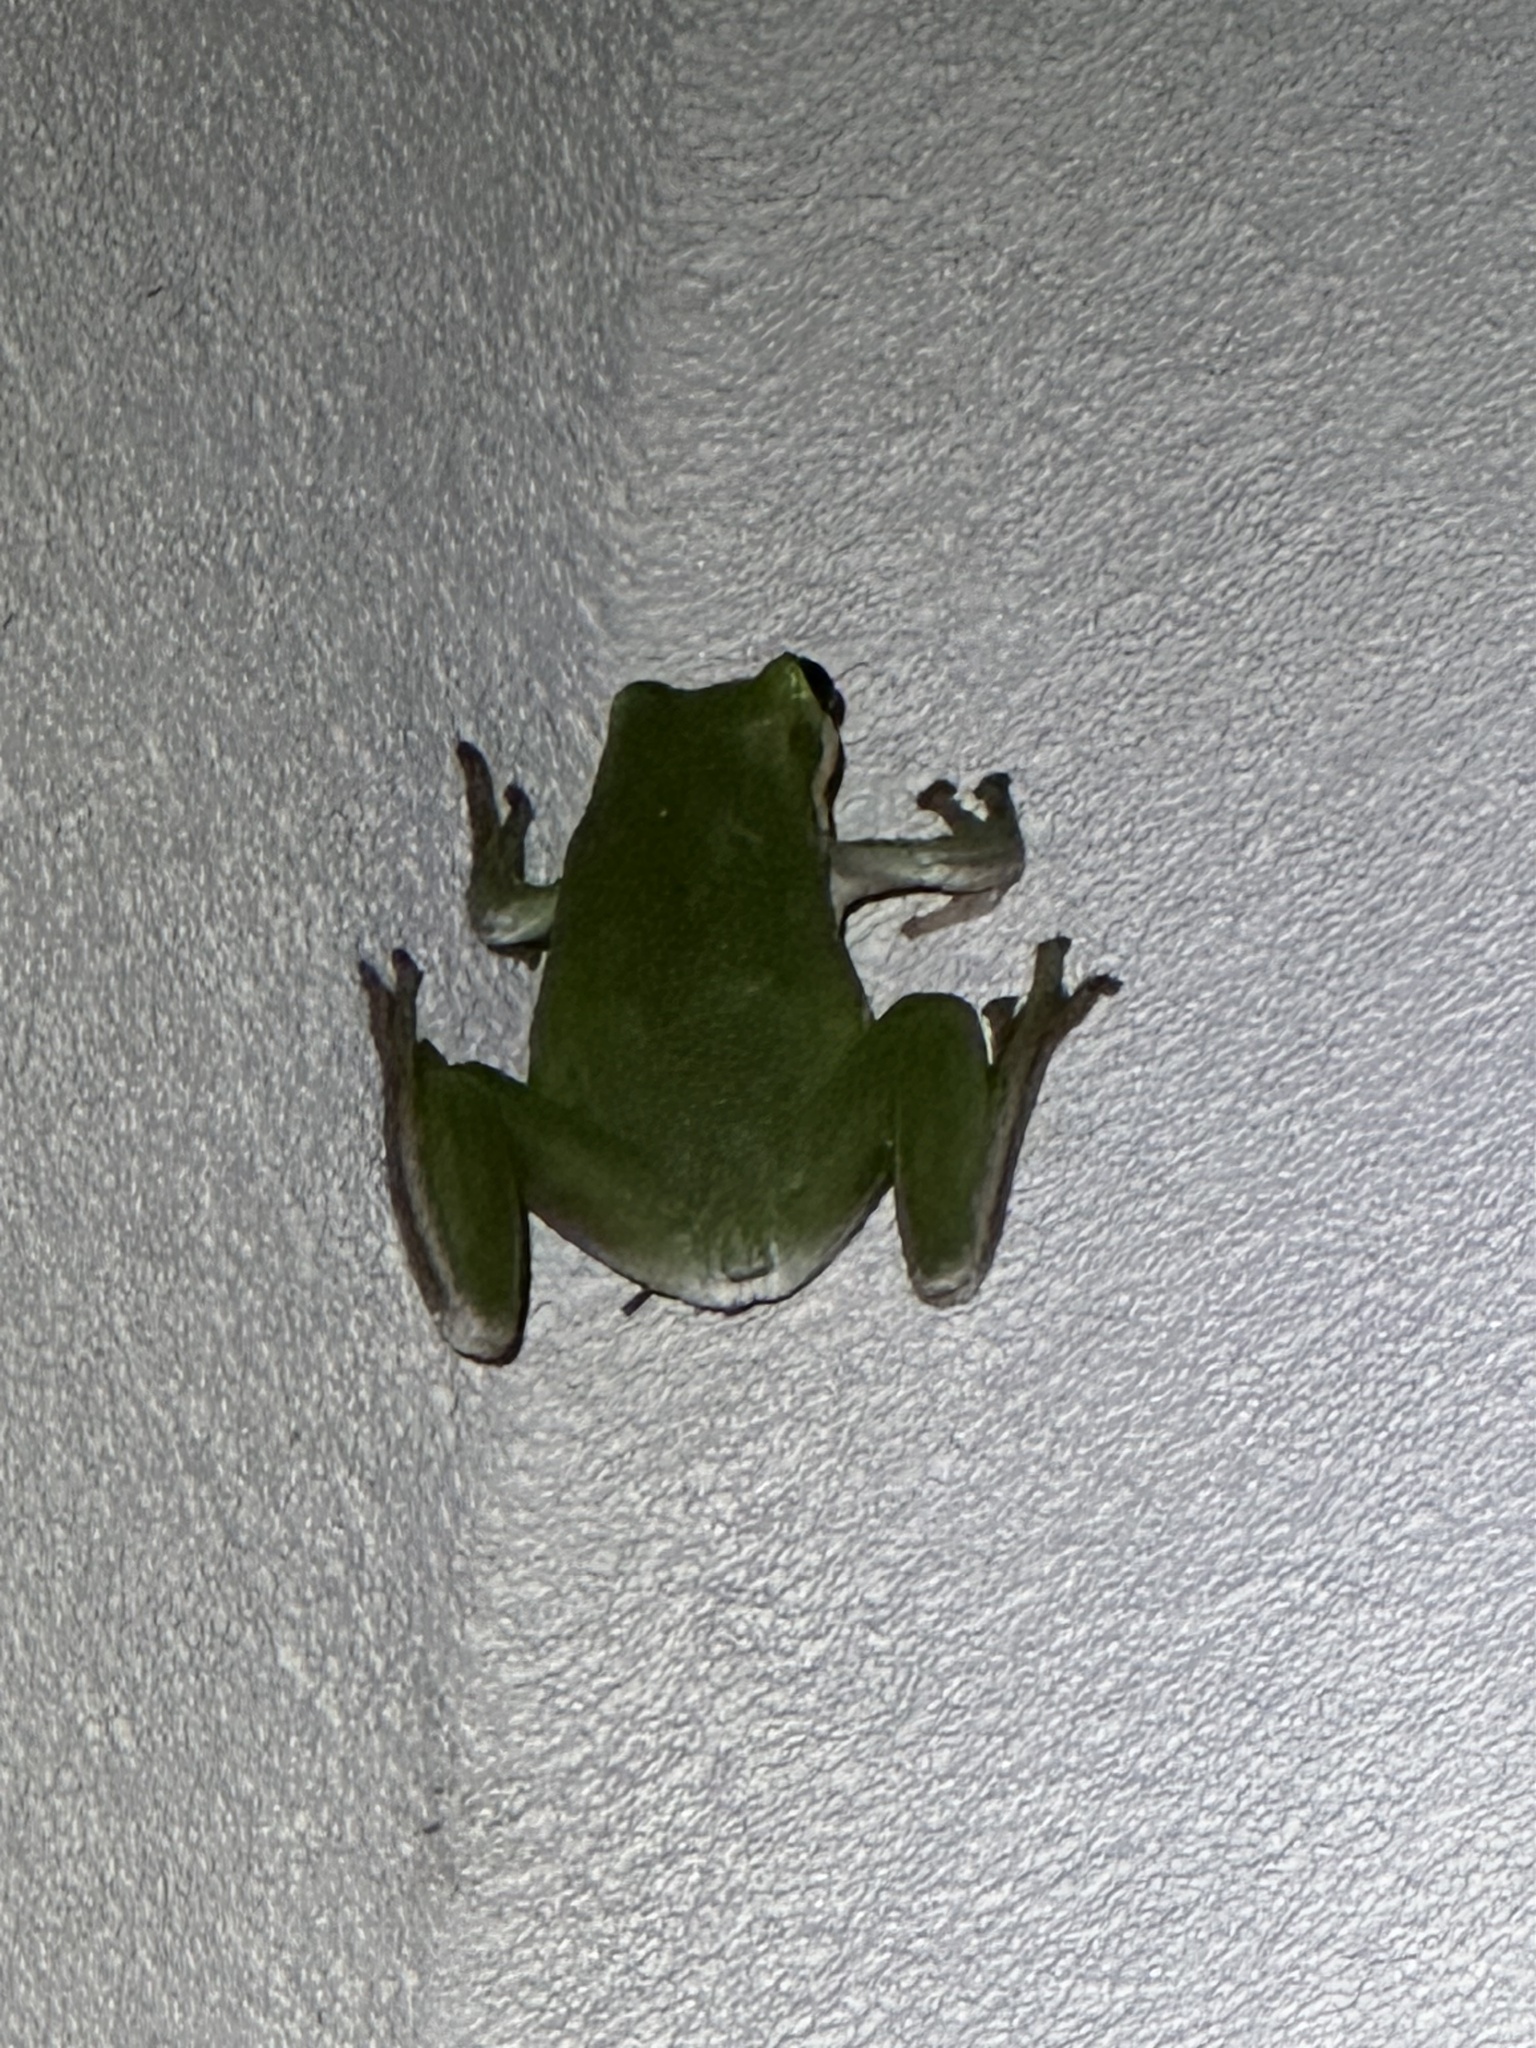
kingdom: Animalia
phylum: Chordata
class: Amphibia
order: Anura
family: Hylidae
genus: Dryophytes
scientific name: Dryophytes cinereus
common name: Green treefrog
